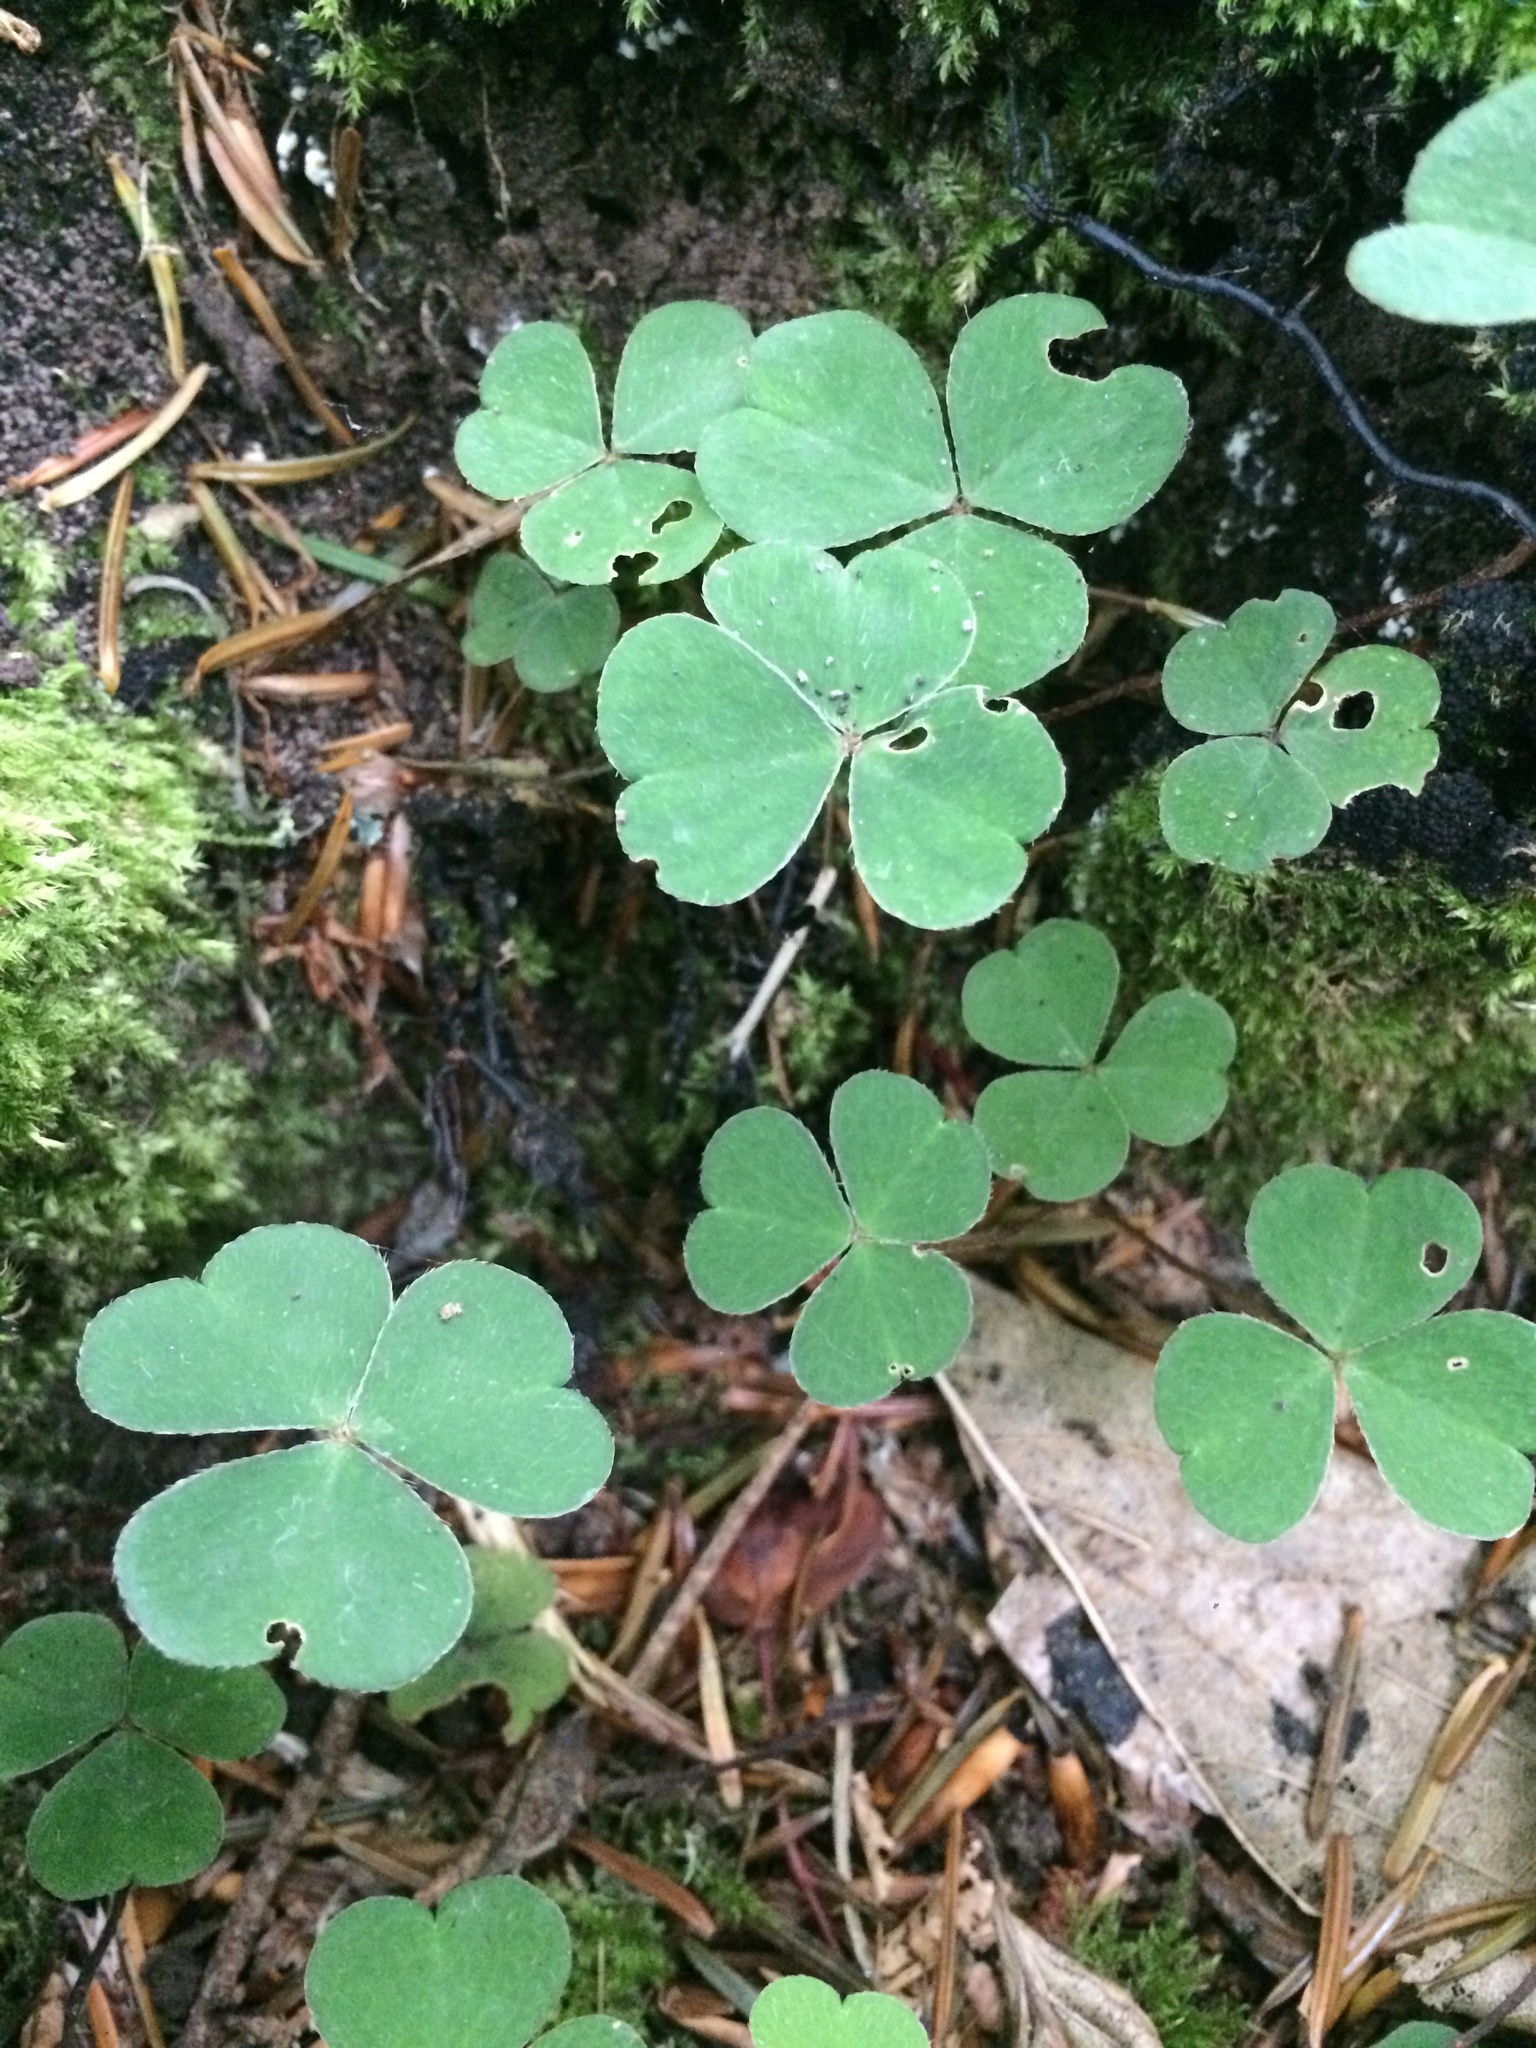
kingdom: Plantae
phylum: Tracheophyta
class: Magnoliopsida
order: Oxalidales
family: Oxalidaceae
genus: Oxalis
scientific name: Oxalis acetosella
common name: Wood-sorrel
